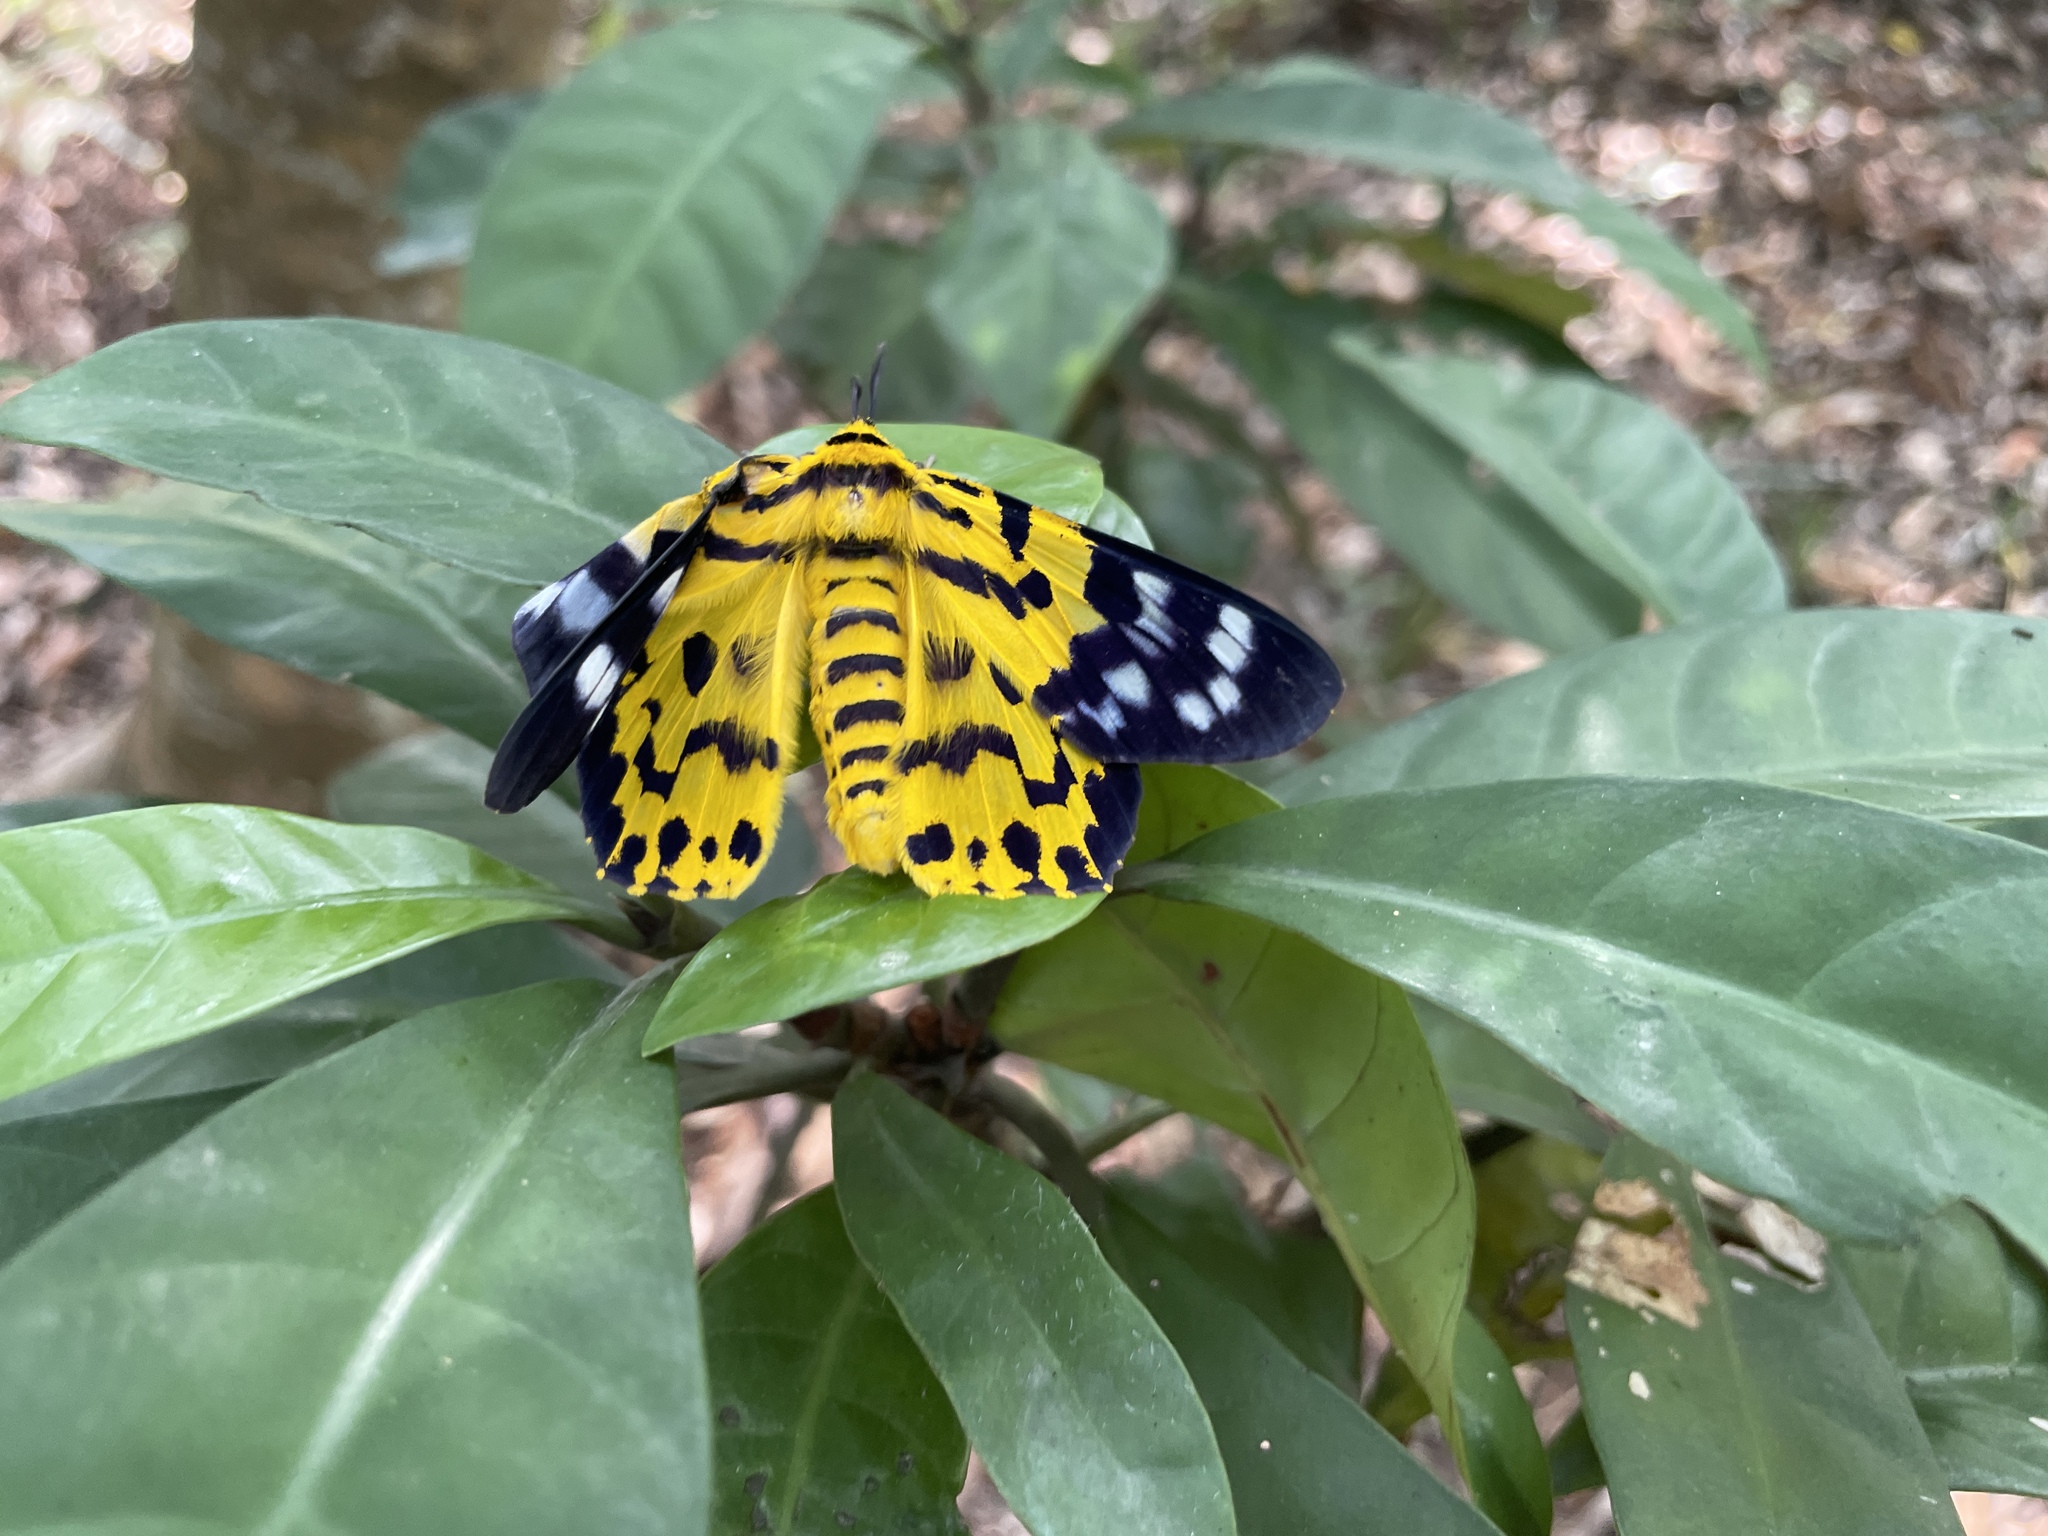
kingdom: Animalia
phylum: Arthropoda
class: Insecta
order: Lepidoptera
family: Geometridae
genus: Dysphania
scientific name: Dysphania militaris
